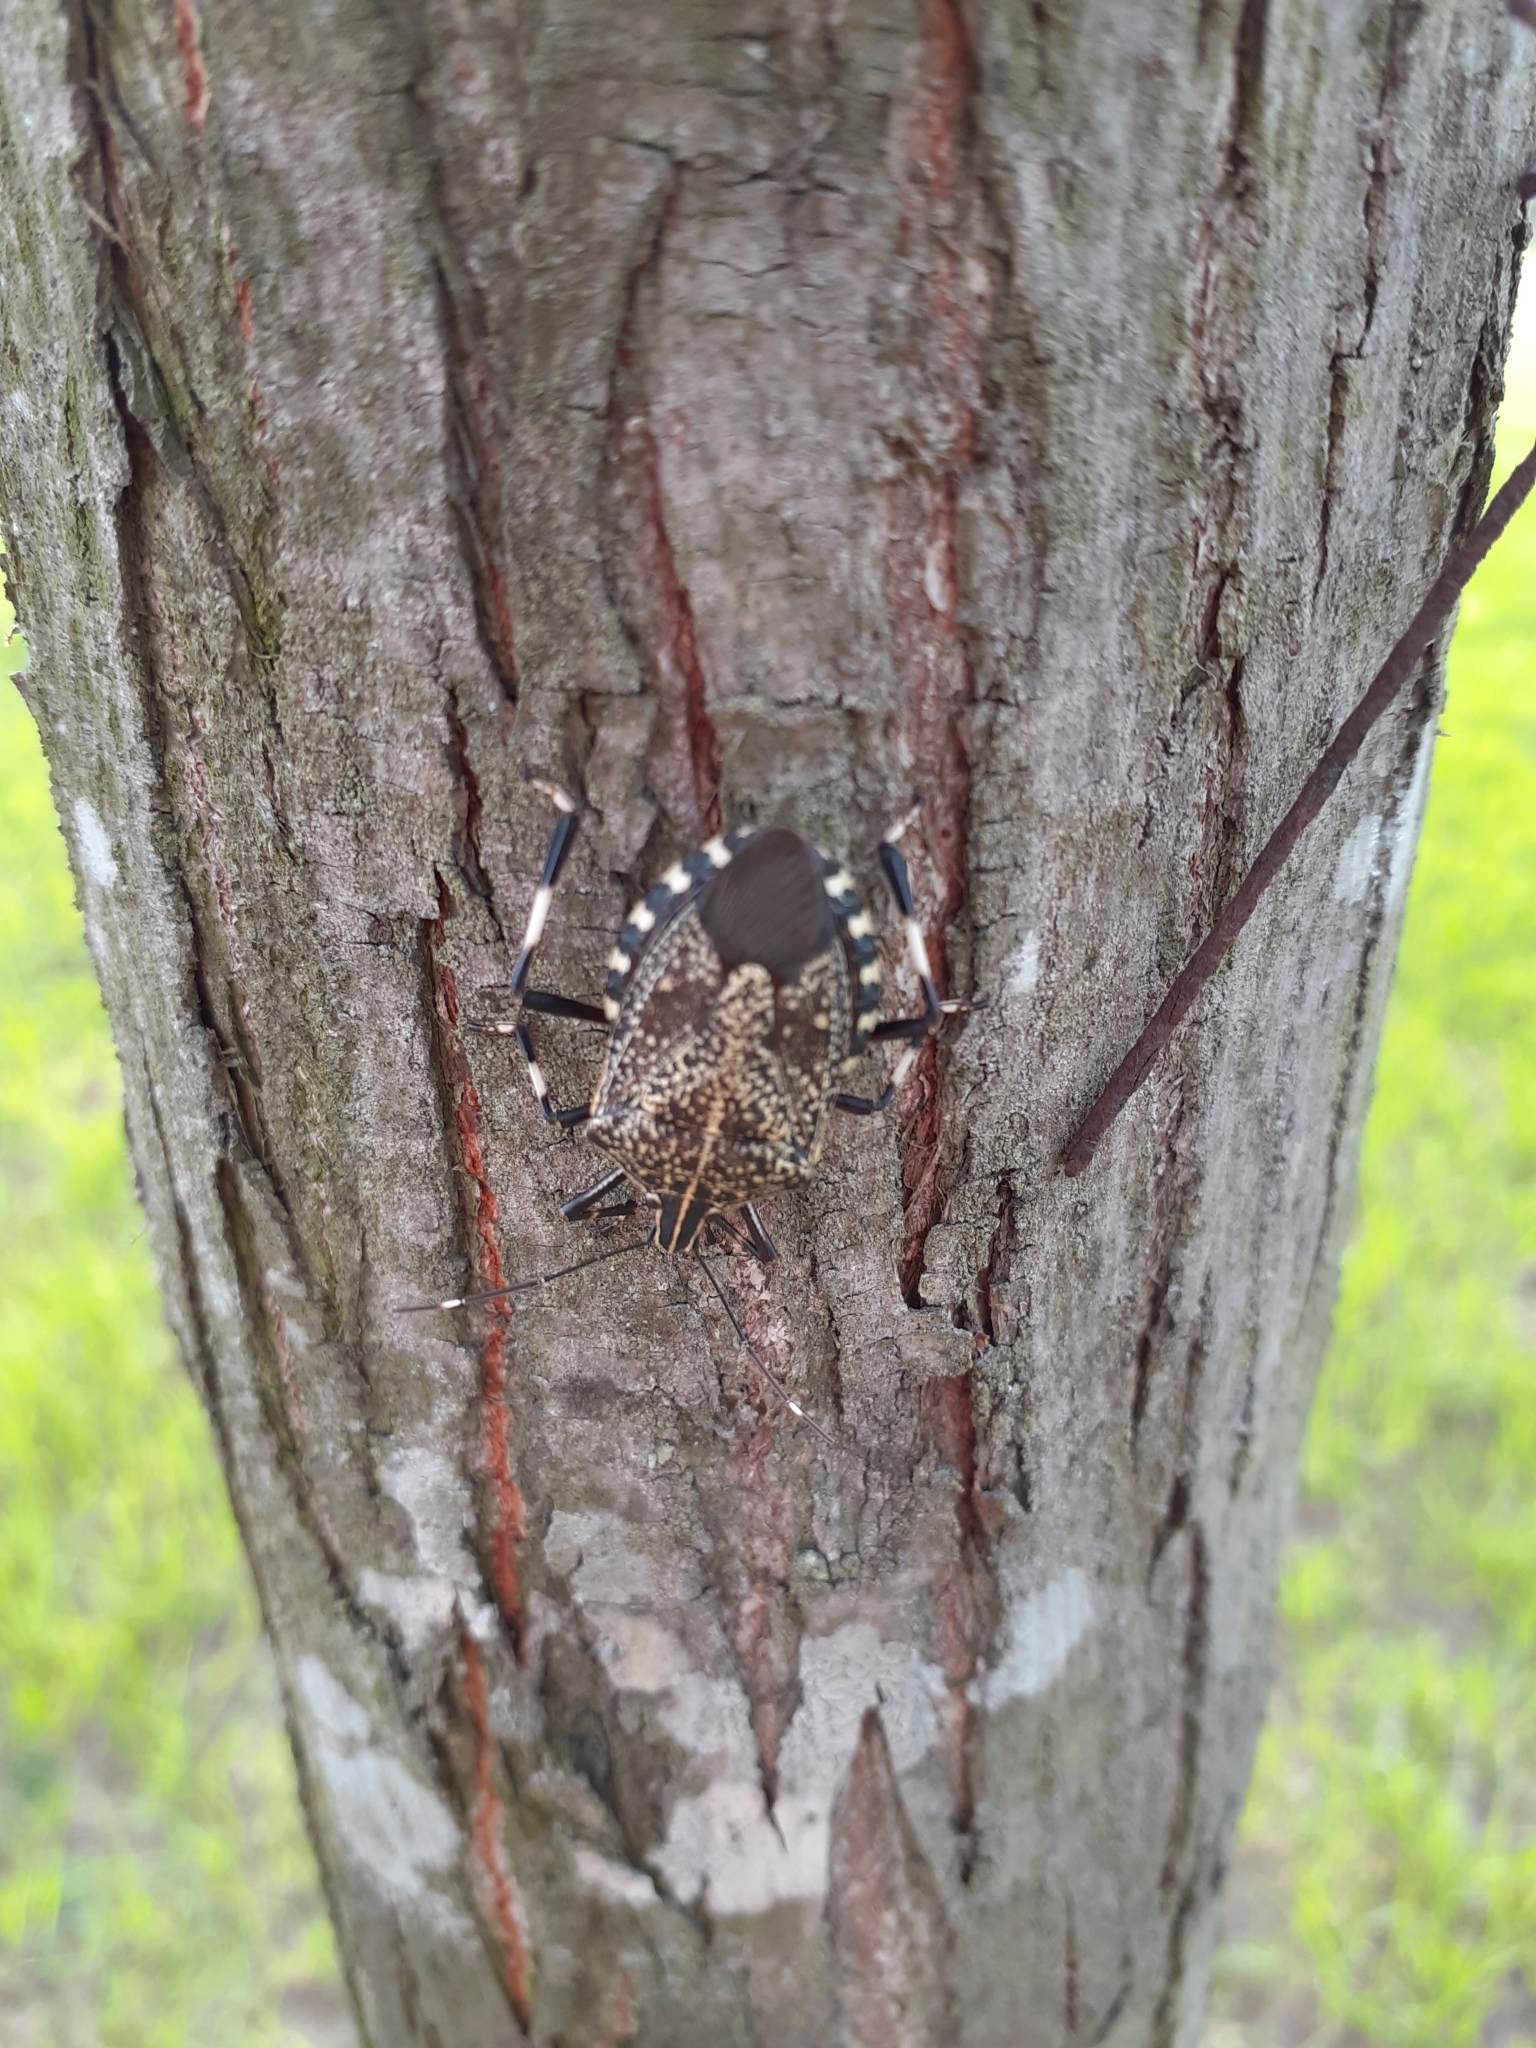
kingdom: Animalia
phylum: Arthropoda
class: Insecta
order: Hemiptera
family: Pentatomidae
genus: Erthesina
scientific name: Erthesina fullo
